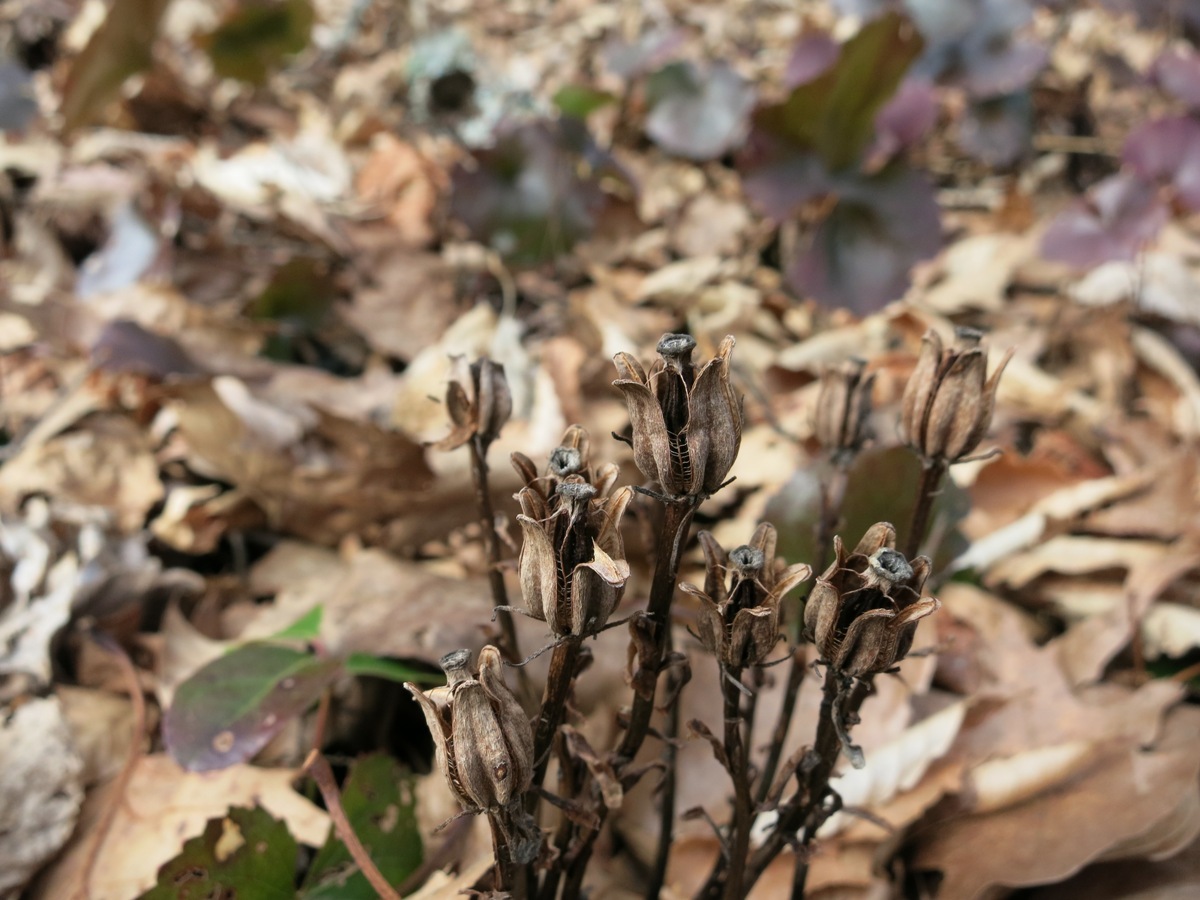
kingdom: Plantae
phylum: Tracheophyta
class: Magnoliopsida
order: Ericales
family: Ericaceae
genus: Monotropa
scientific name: Monotropa uniflora
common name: Convulsion root
